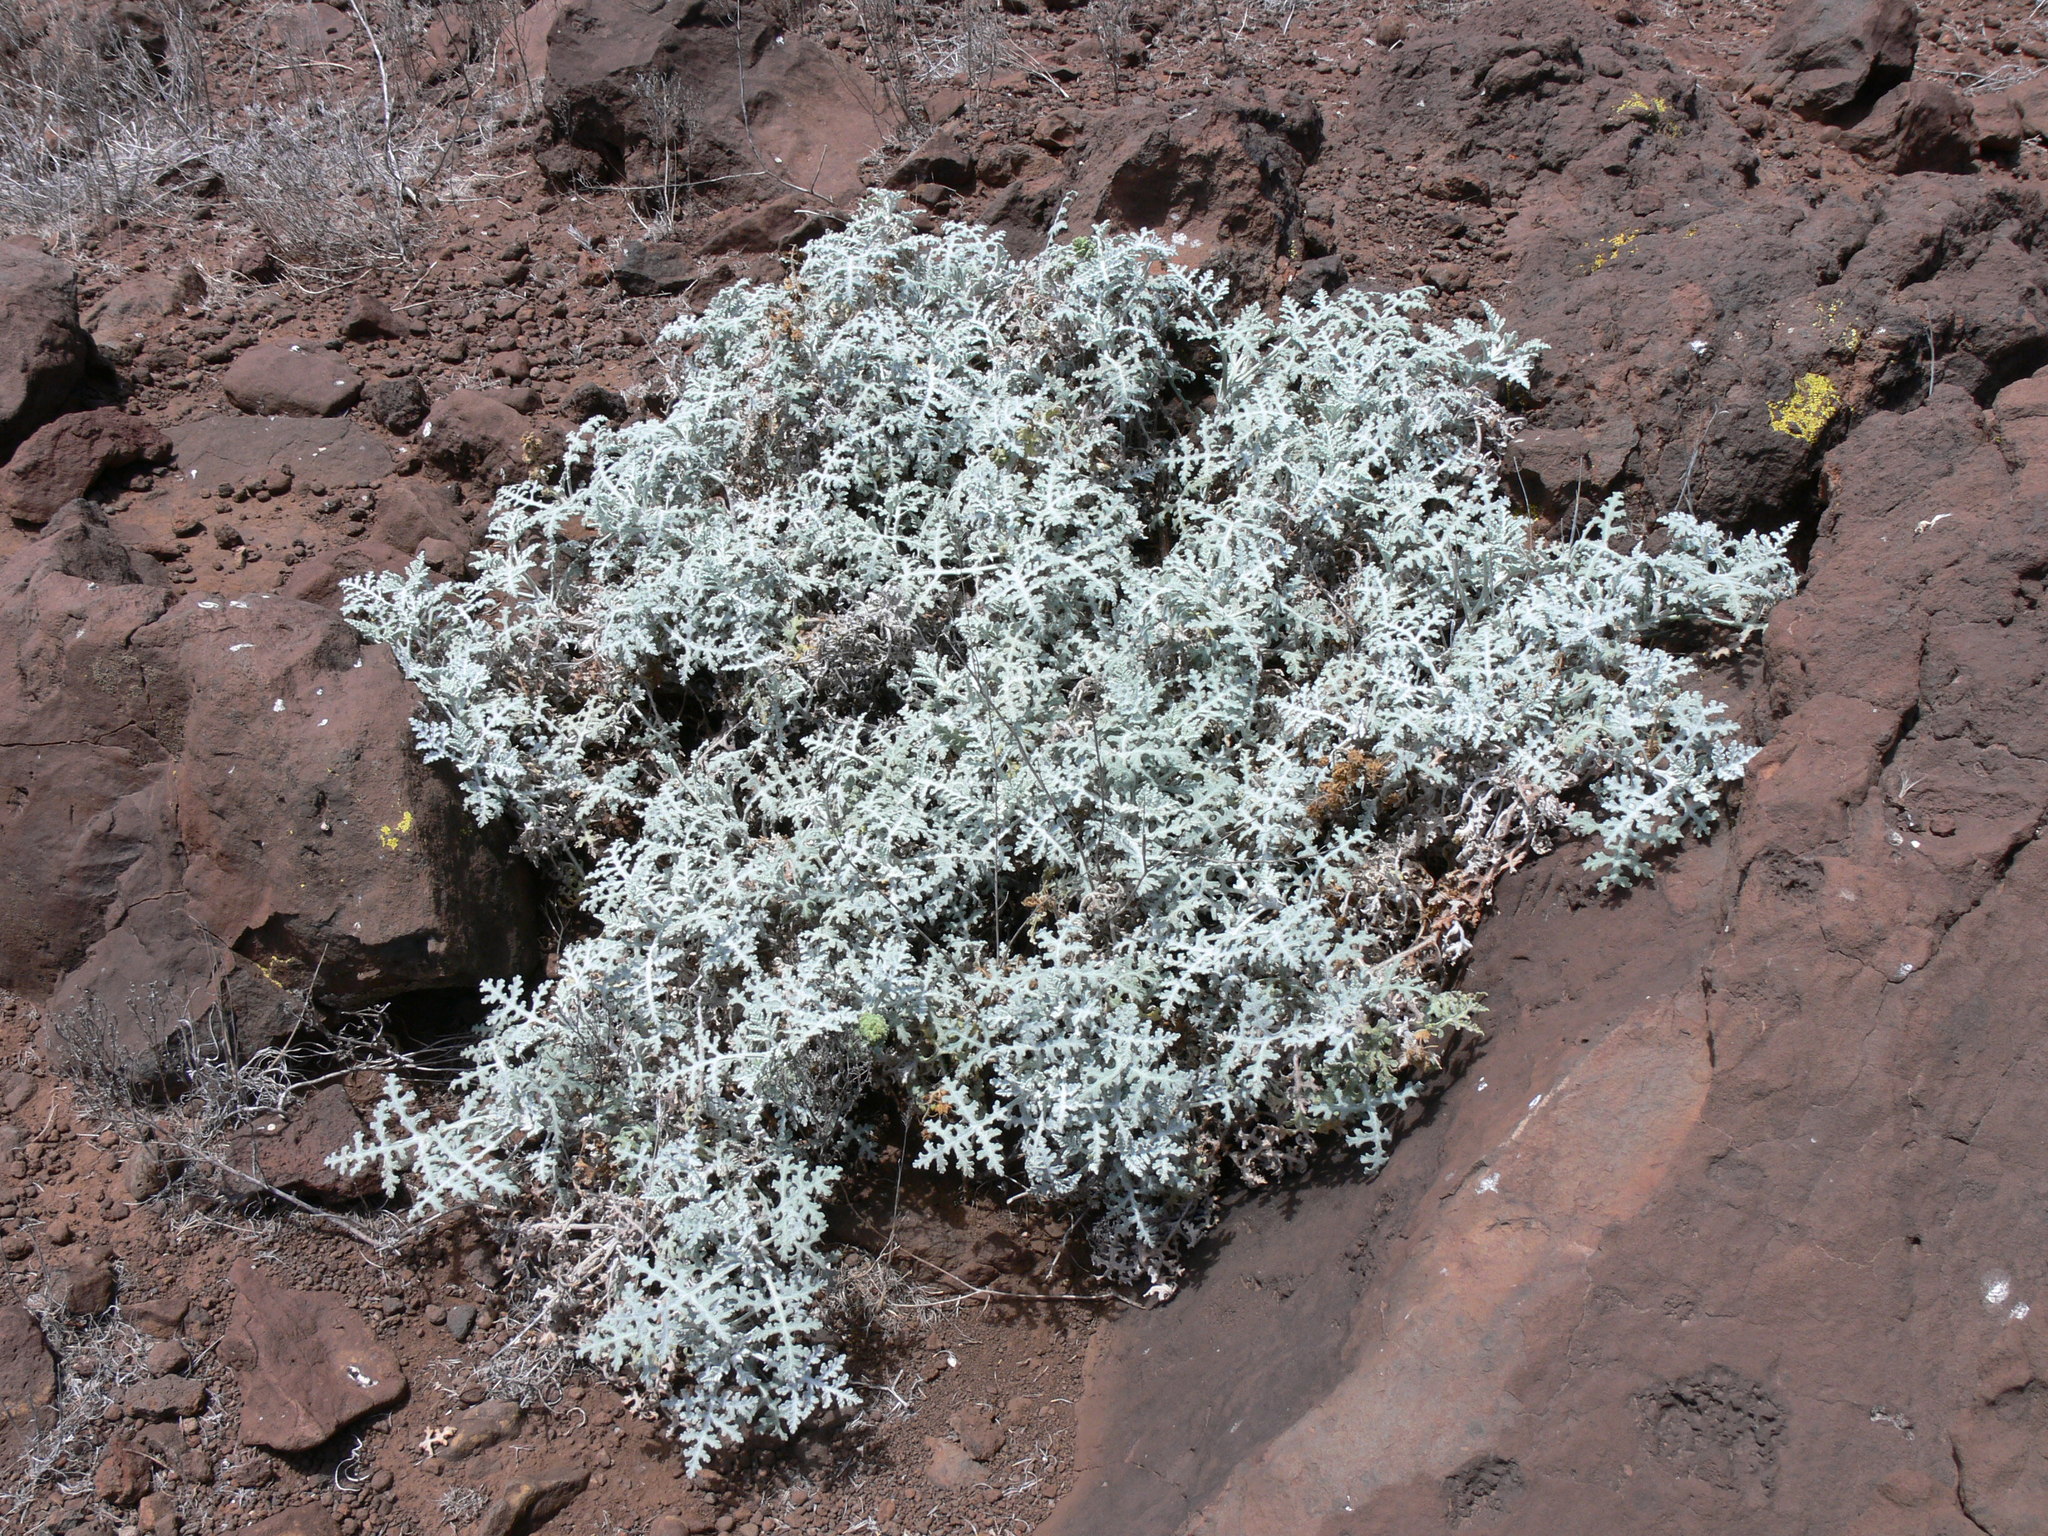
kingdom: Plantae
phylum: Tracheophyta
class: Magnoliopsida
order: Asterales
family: Asteraceae
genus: Ambrosia
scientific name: Ambrosia camphorata
